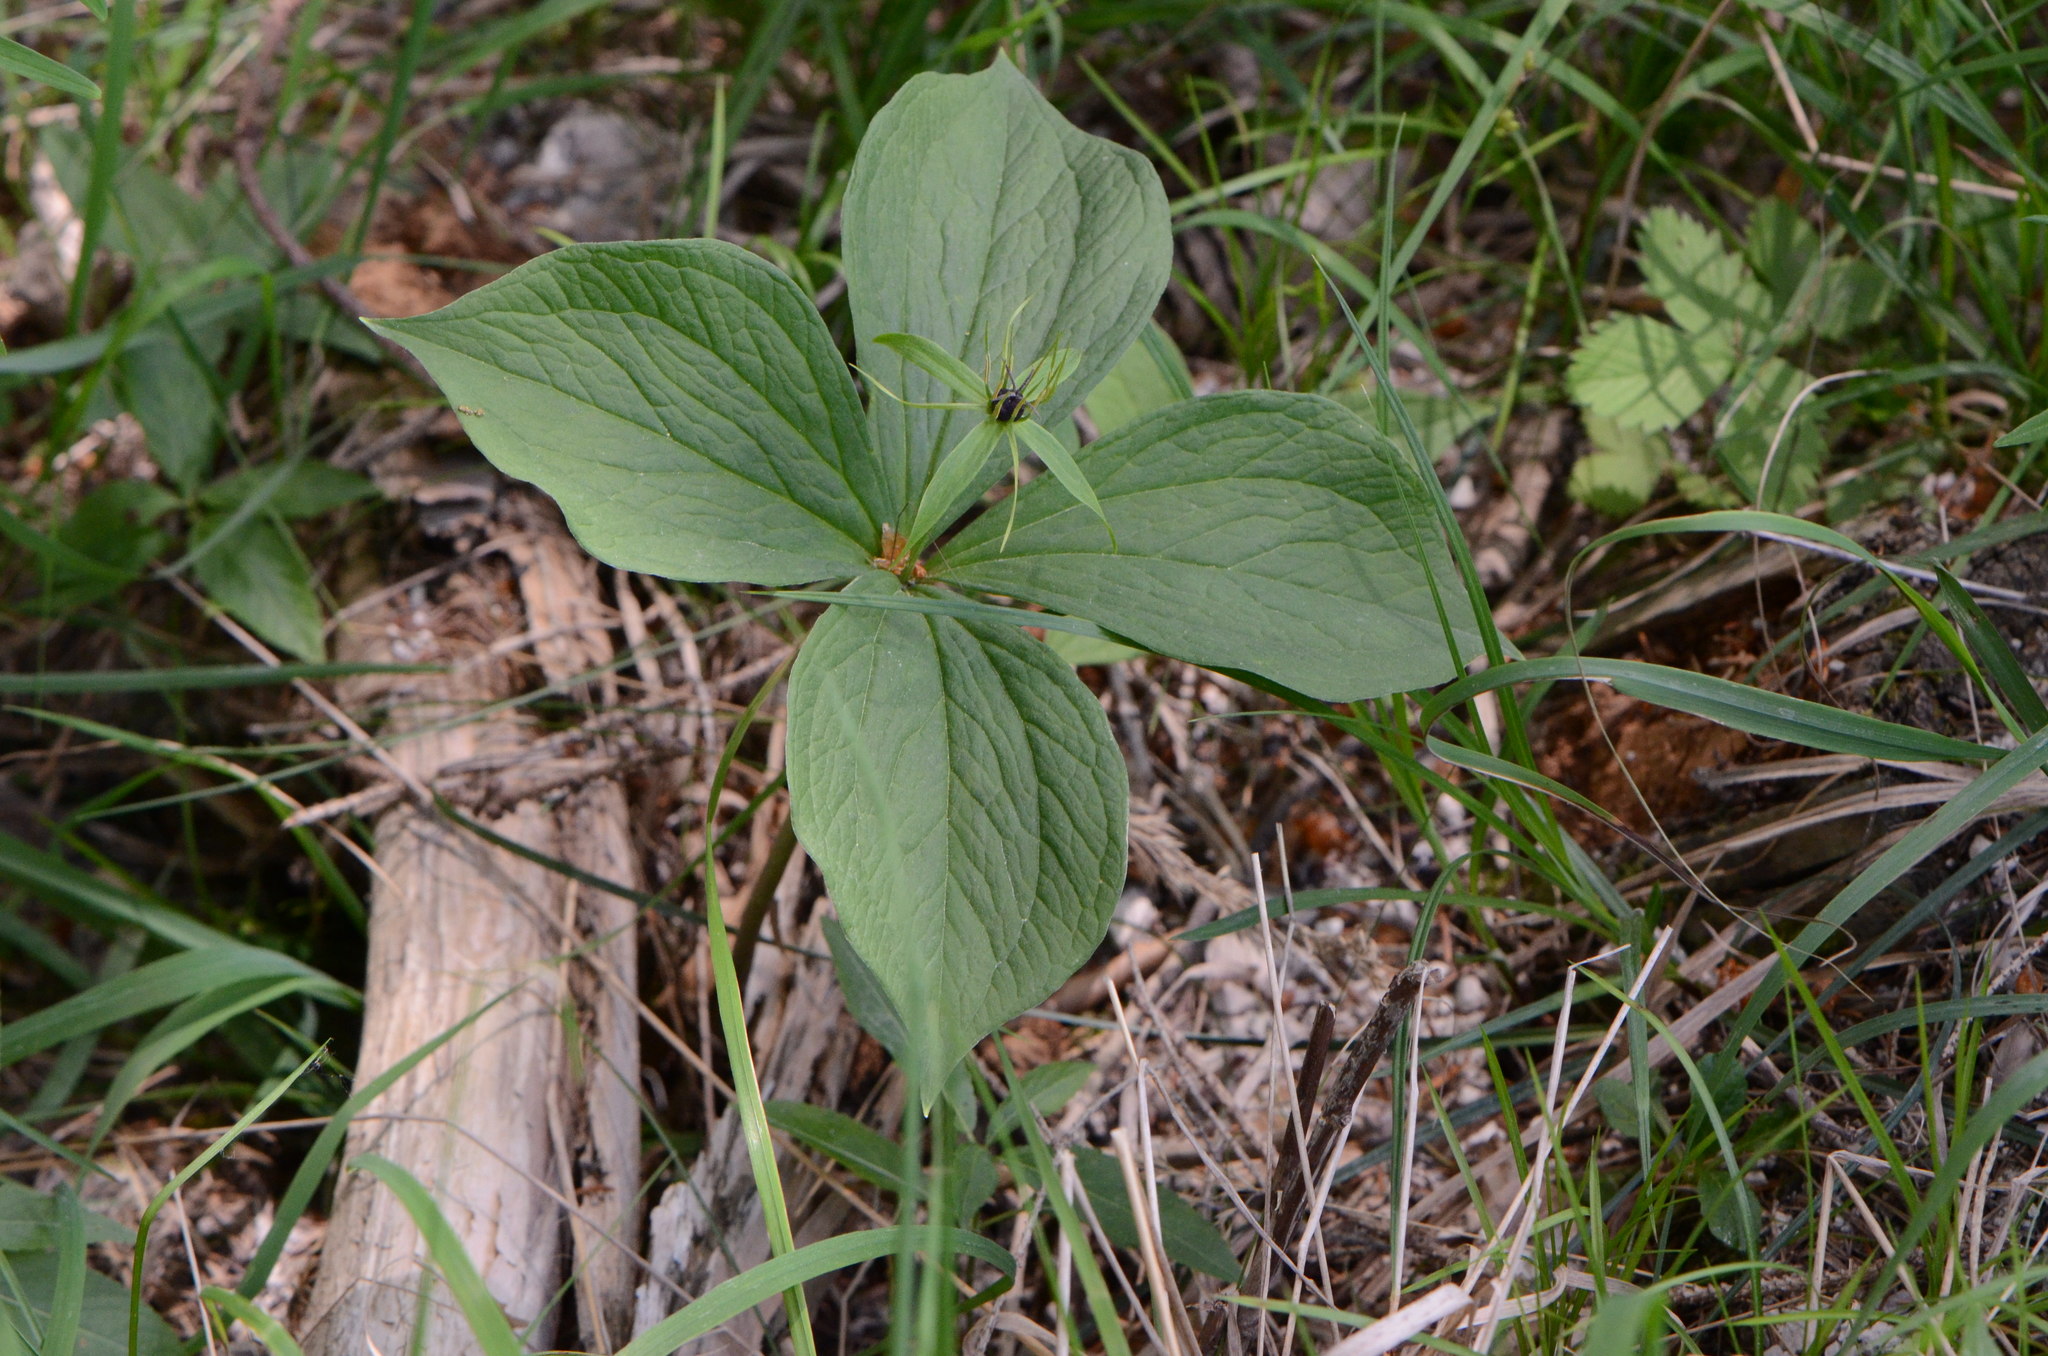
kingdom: Plantae
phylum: Tracheophyta
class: Liliopsida
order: Liliales
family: Melanthiaceae
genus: Paris
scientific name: Paris quadrifolia
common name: Herb-paris
